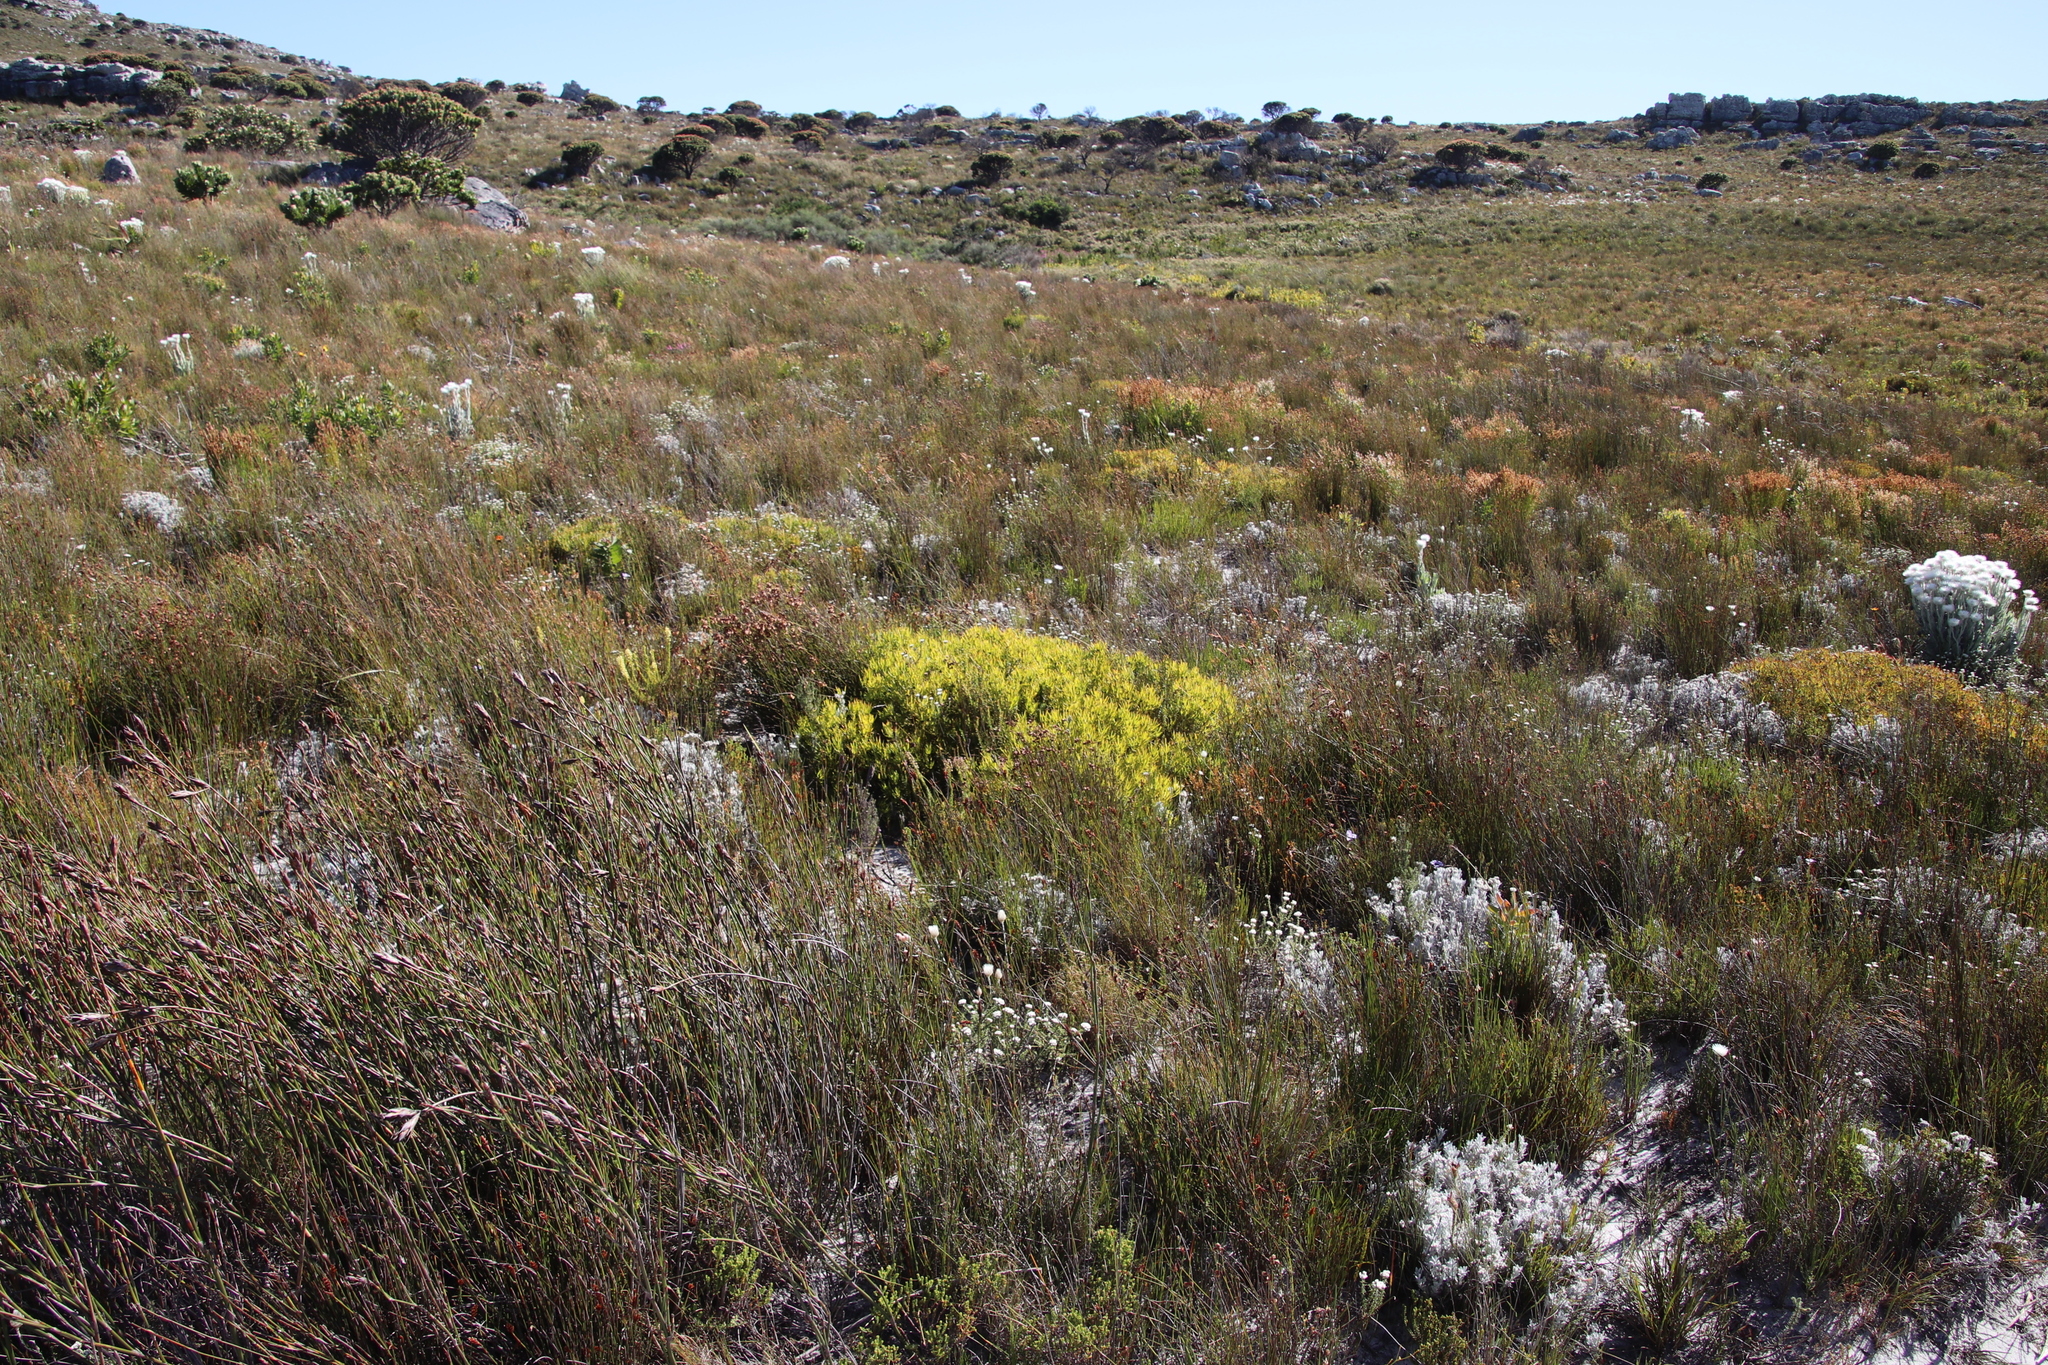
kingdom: Plantae
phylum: Tracheophyta
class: Magnoliopsida
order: Proteales
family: Proteaceae
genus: Leucadendron
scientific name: Leucadendron salignum
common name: Common sunshine conebush
